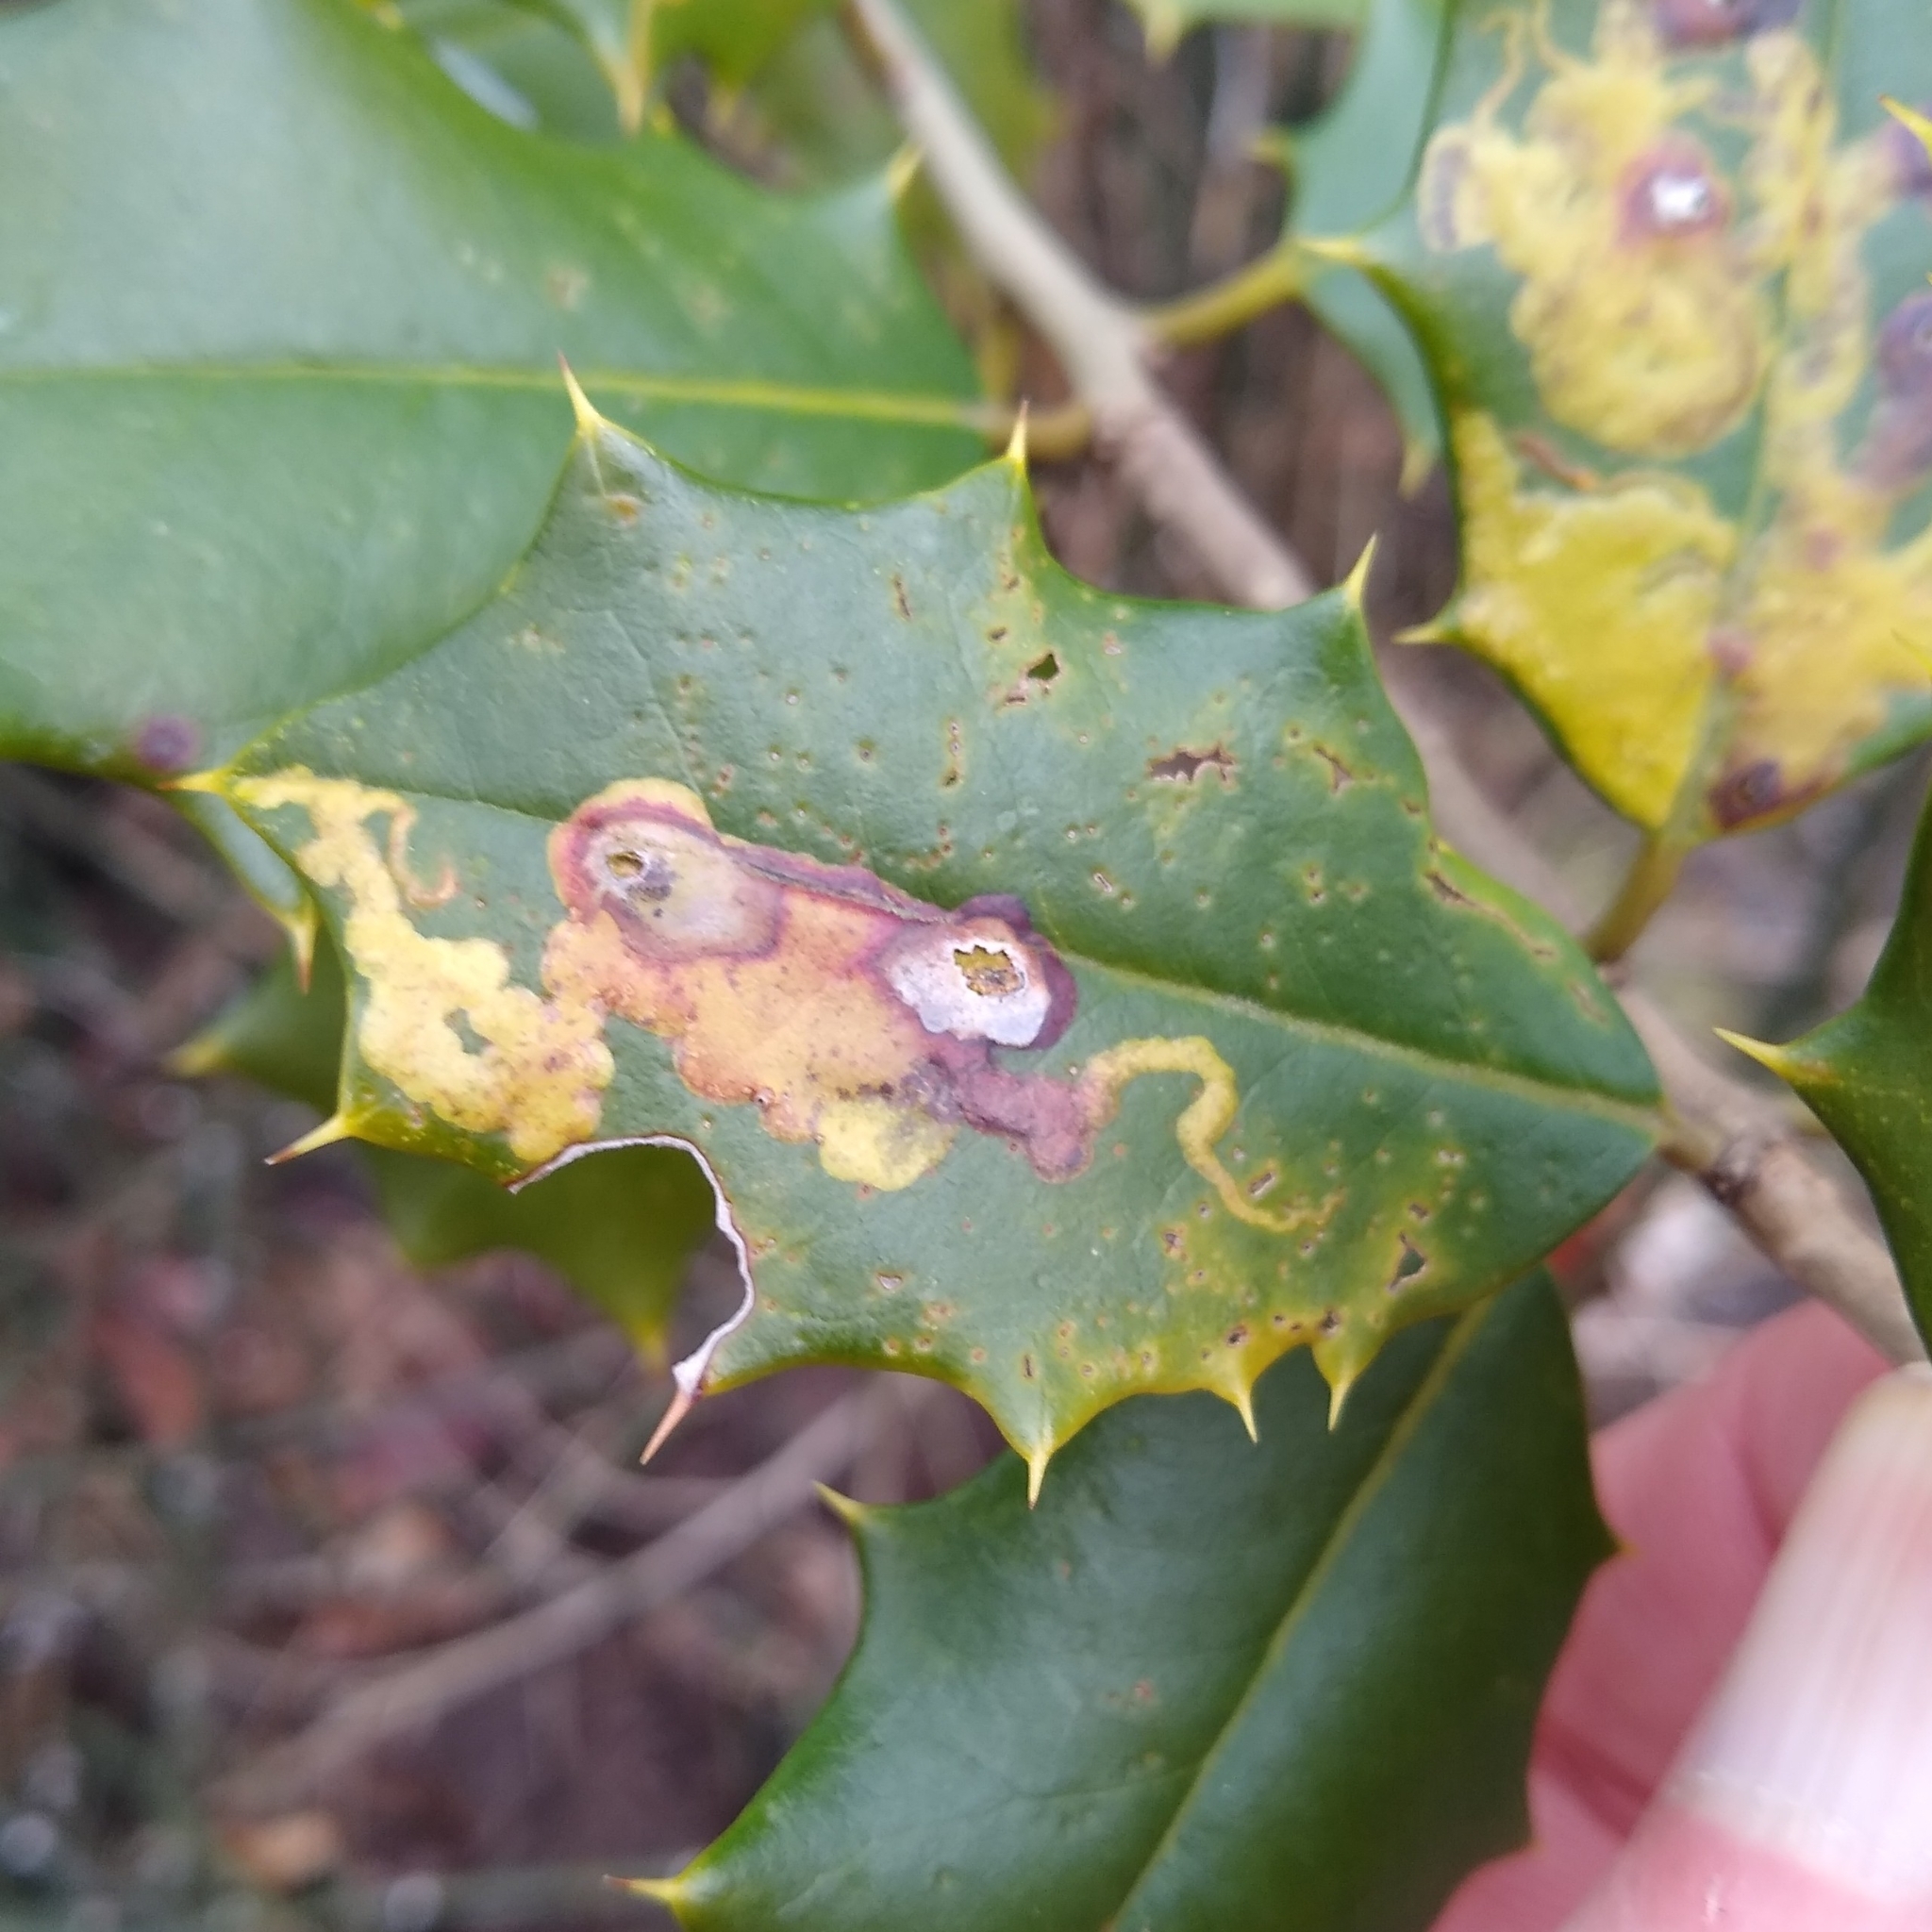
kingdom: Animalia
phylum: Arthropoda
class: Insecta
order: Diptera
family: Agromyzidae
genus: Phytomyza
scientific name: Phytomyza ilicicola
